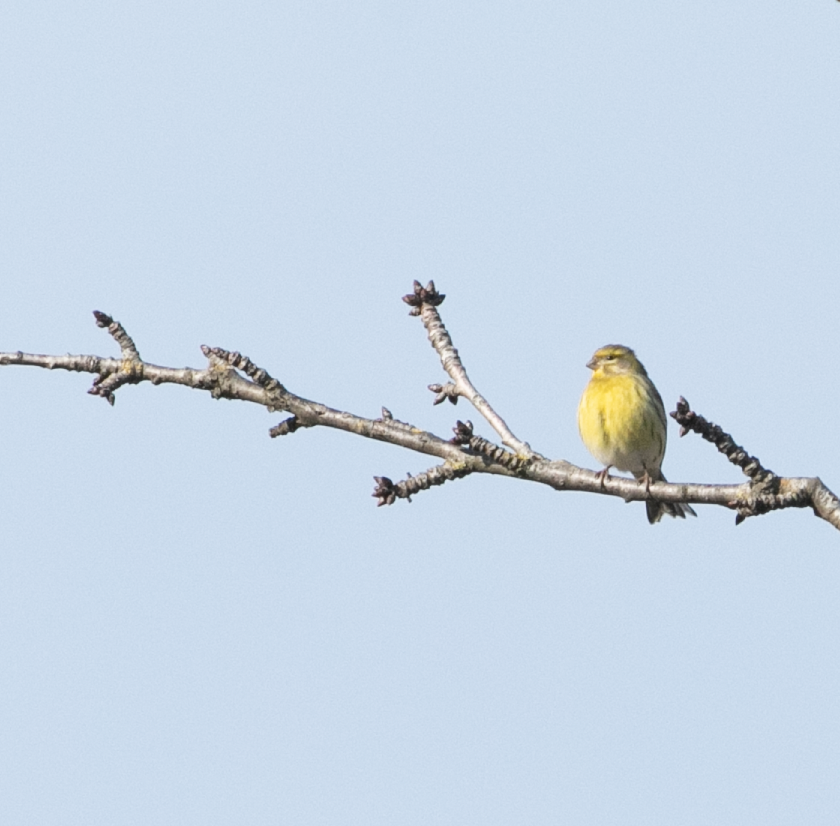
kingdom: Animalia
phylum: Chordata
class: Aves
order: Passeriformes
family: Fringillidae
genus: Serinus
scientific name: Serinus serinus
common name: European serin
